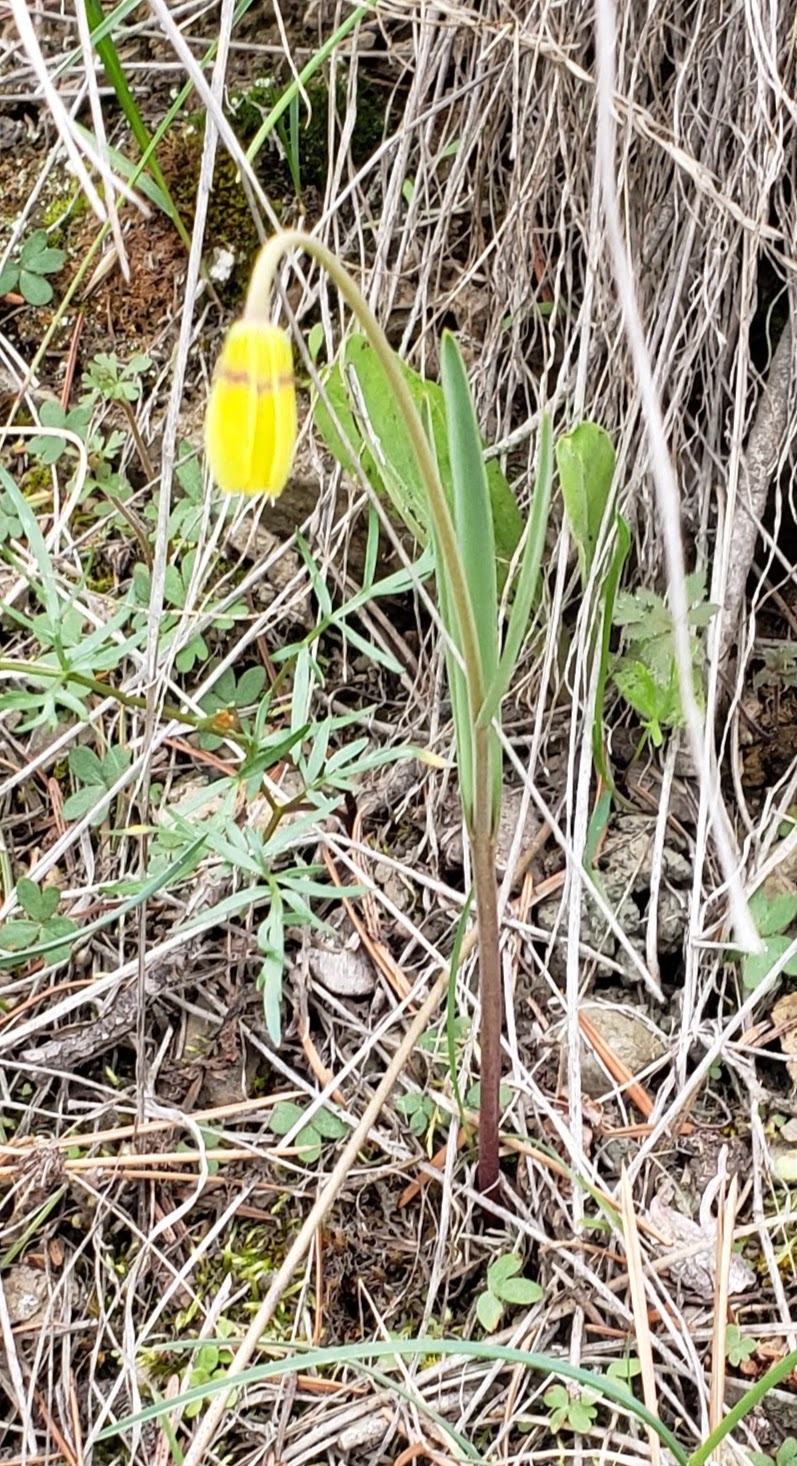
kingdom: Plantae
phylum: Tracheophyta
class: Liliopsida
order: Liliales
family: Liliaceae
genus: Fritillaria
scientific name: Fritillaria pudica
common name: Yellow fritillary
